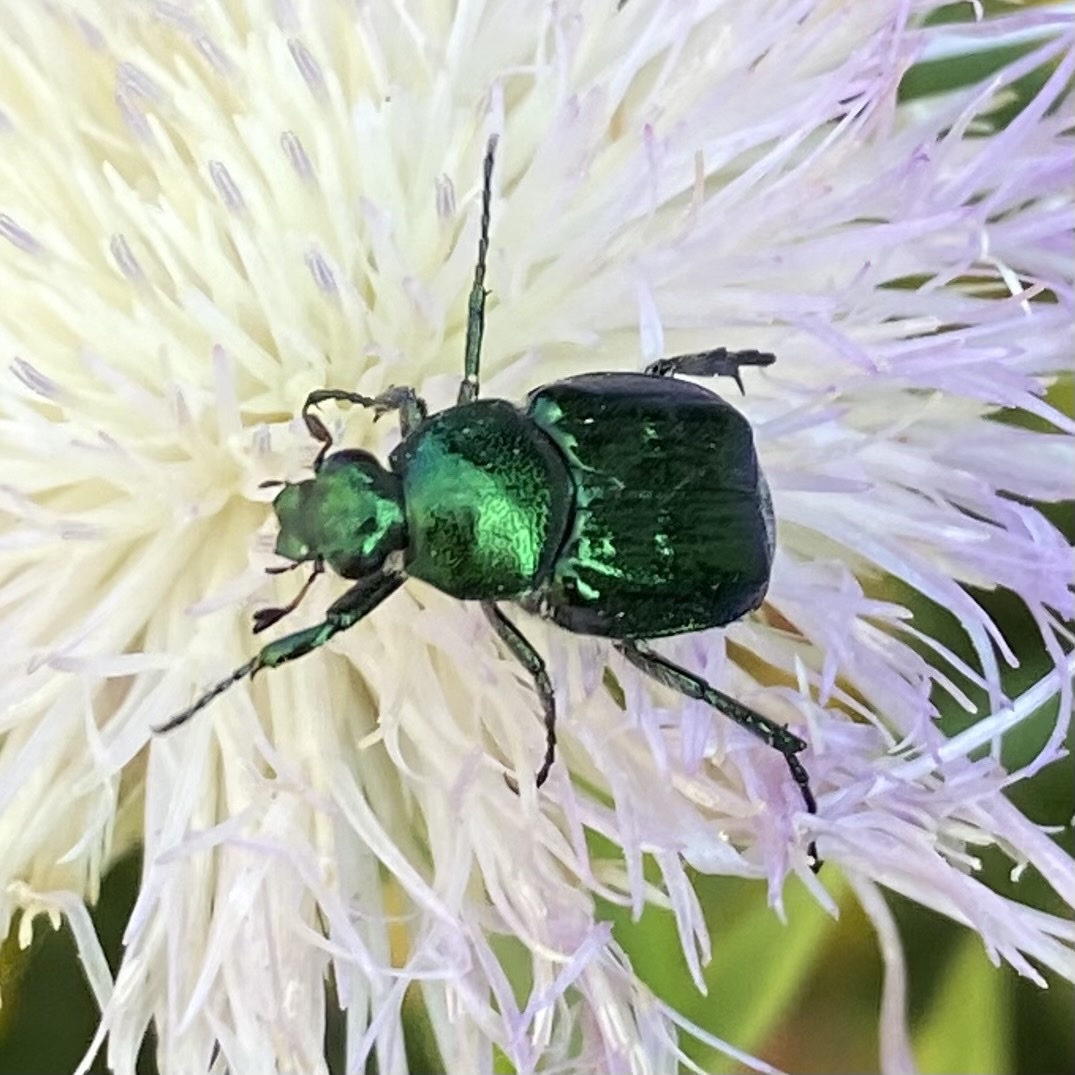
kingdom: Animalia
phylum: Arthropoda
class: Insecta
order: Coleoptera
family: Scarabaeidae
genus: Trichiotinus
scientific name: Trichiotinus lunulatus
